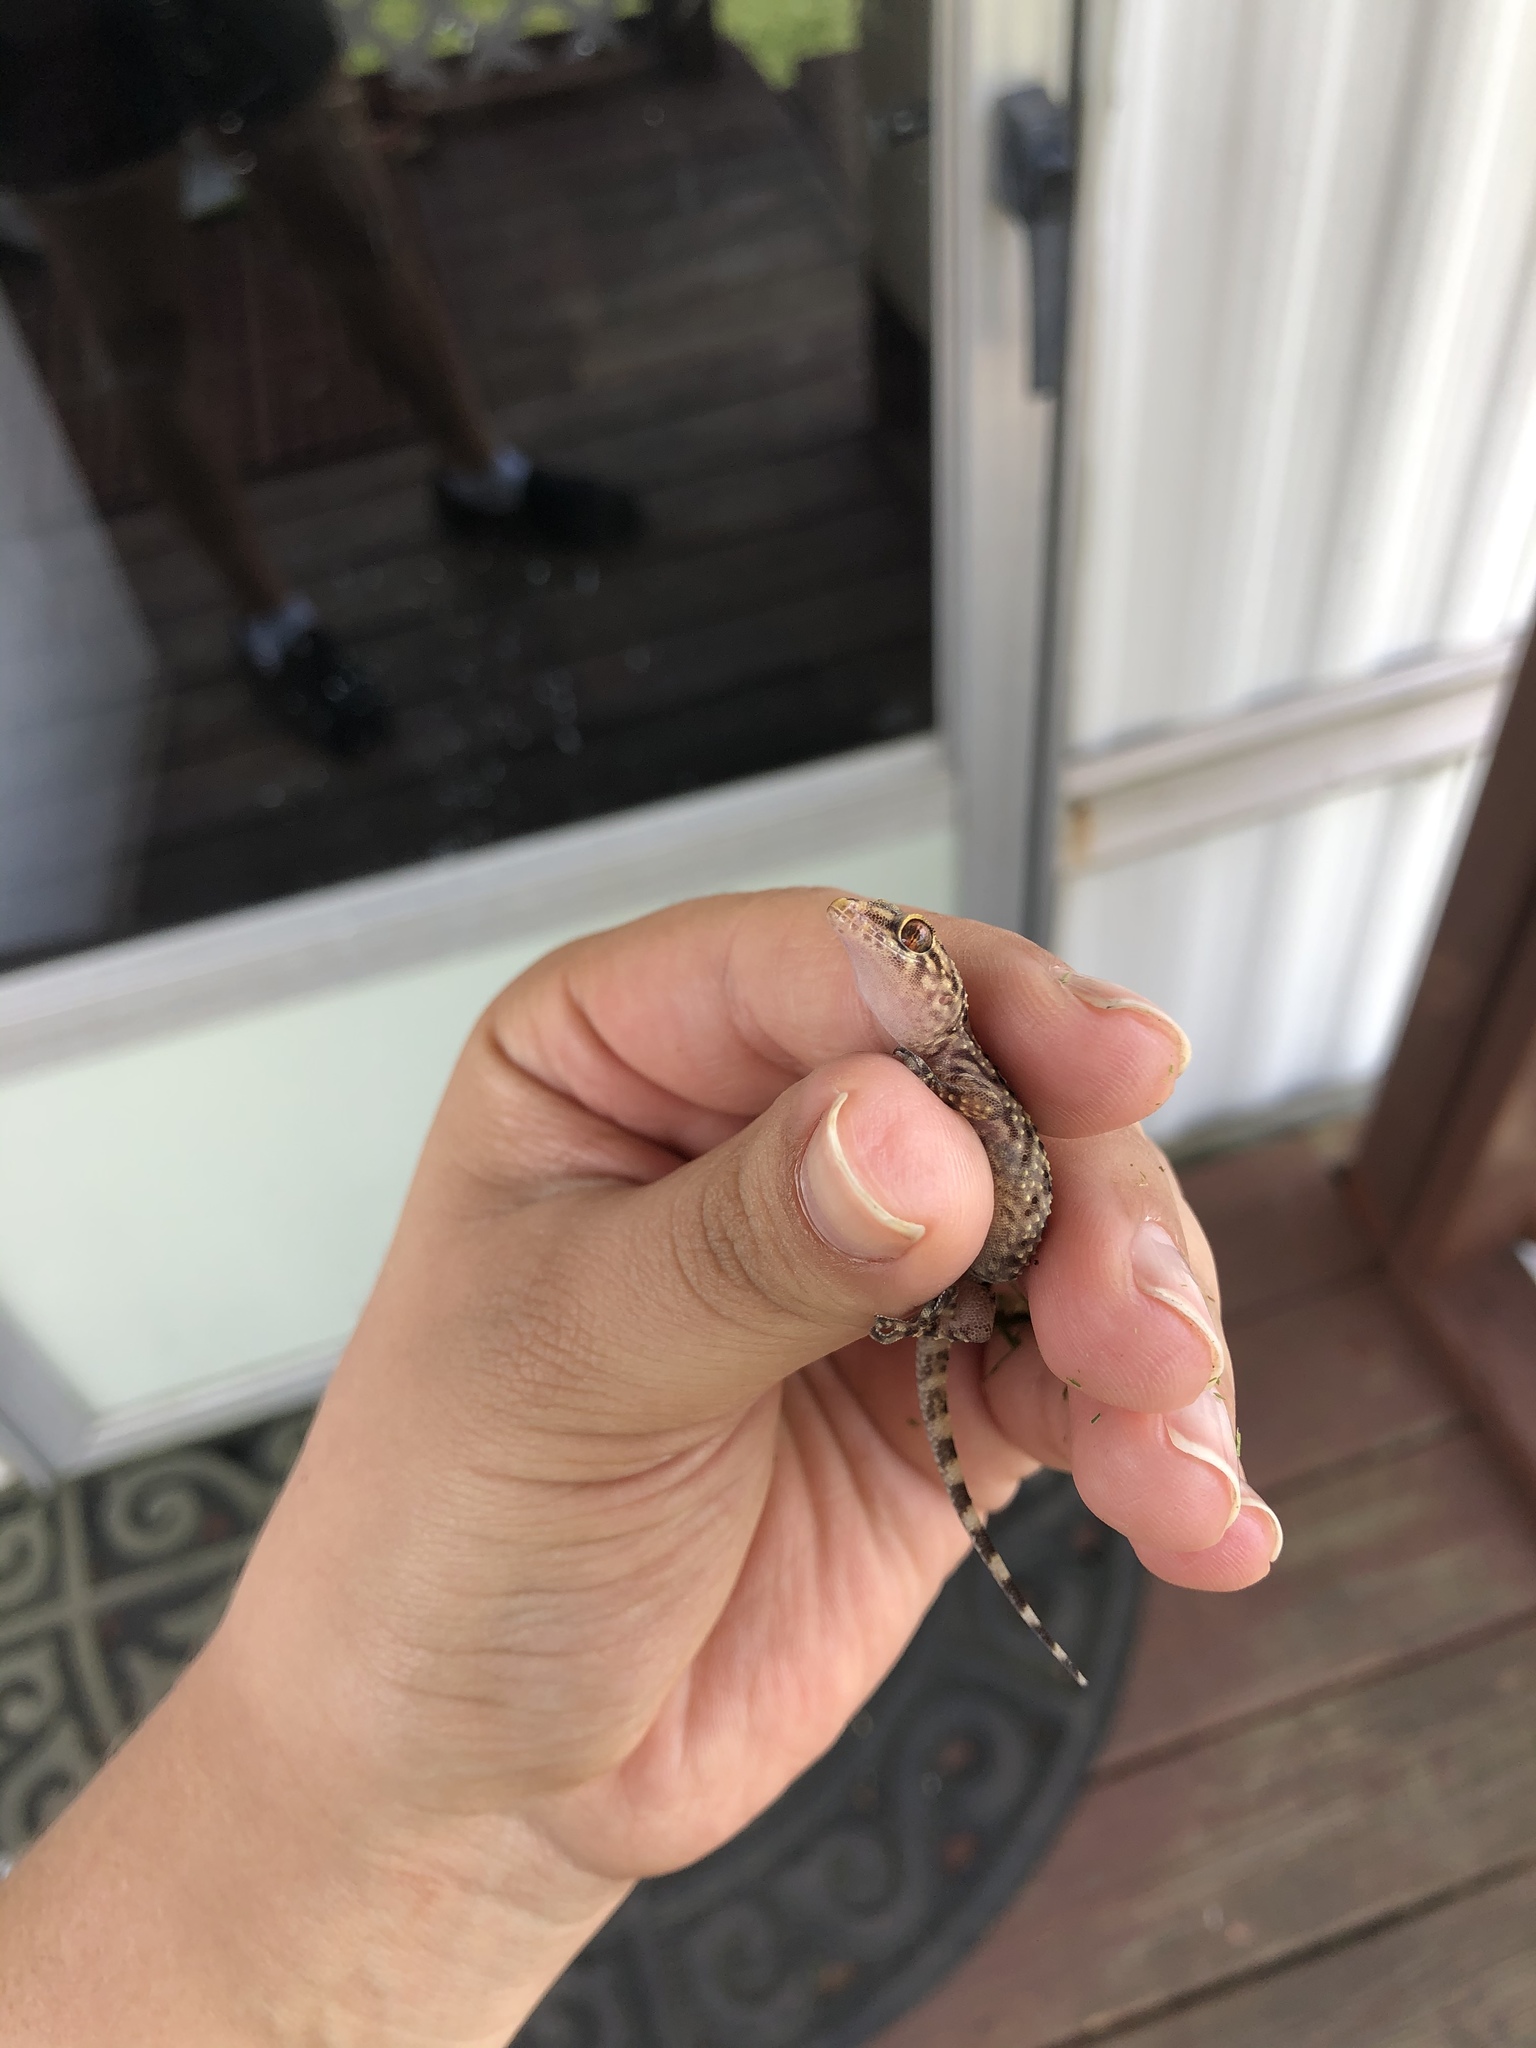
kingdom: Animalia
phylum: Chordata
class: Squamata
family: Gekkonidae
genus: Hemidactylus
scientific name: Hemidactylus turcicus
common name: Turkish gecko
